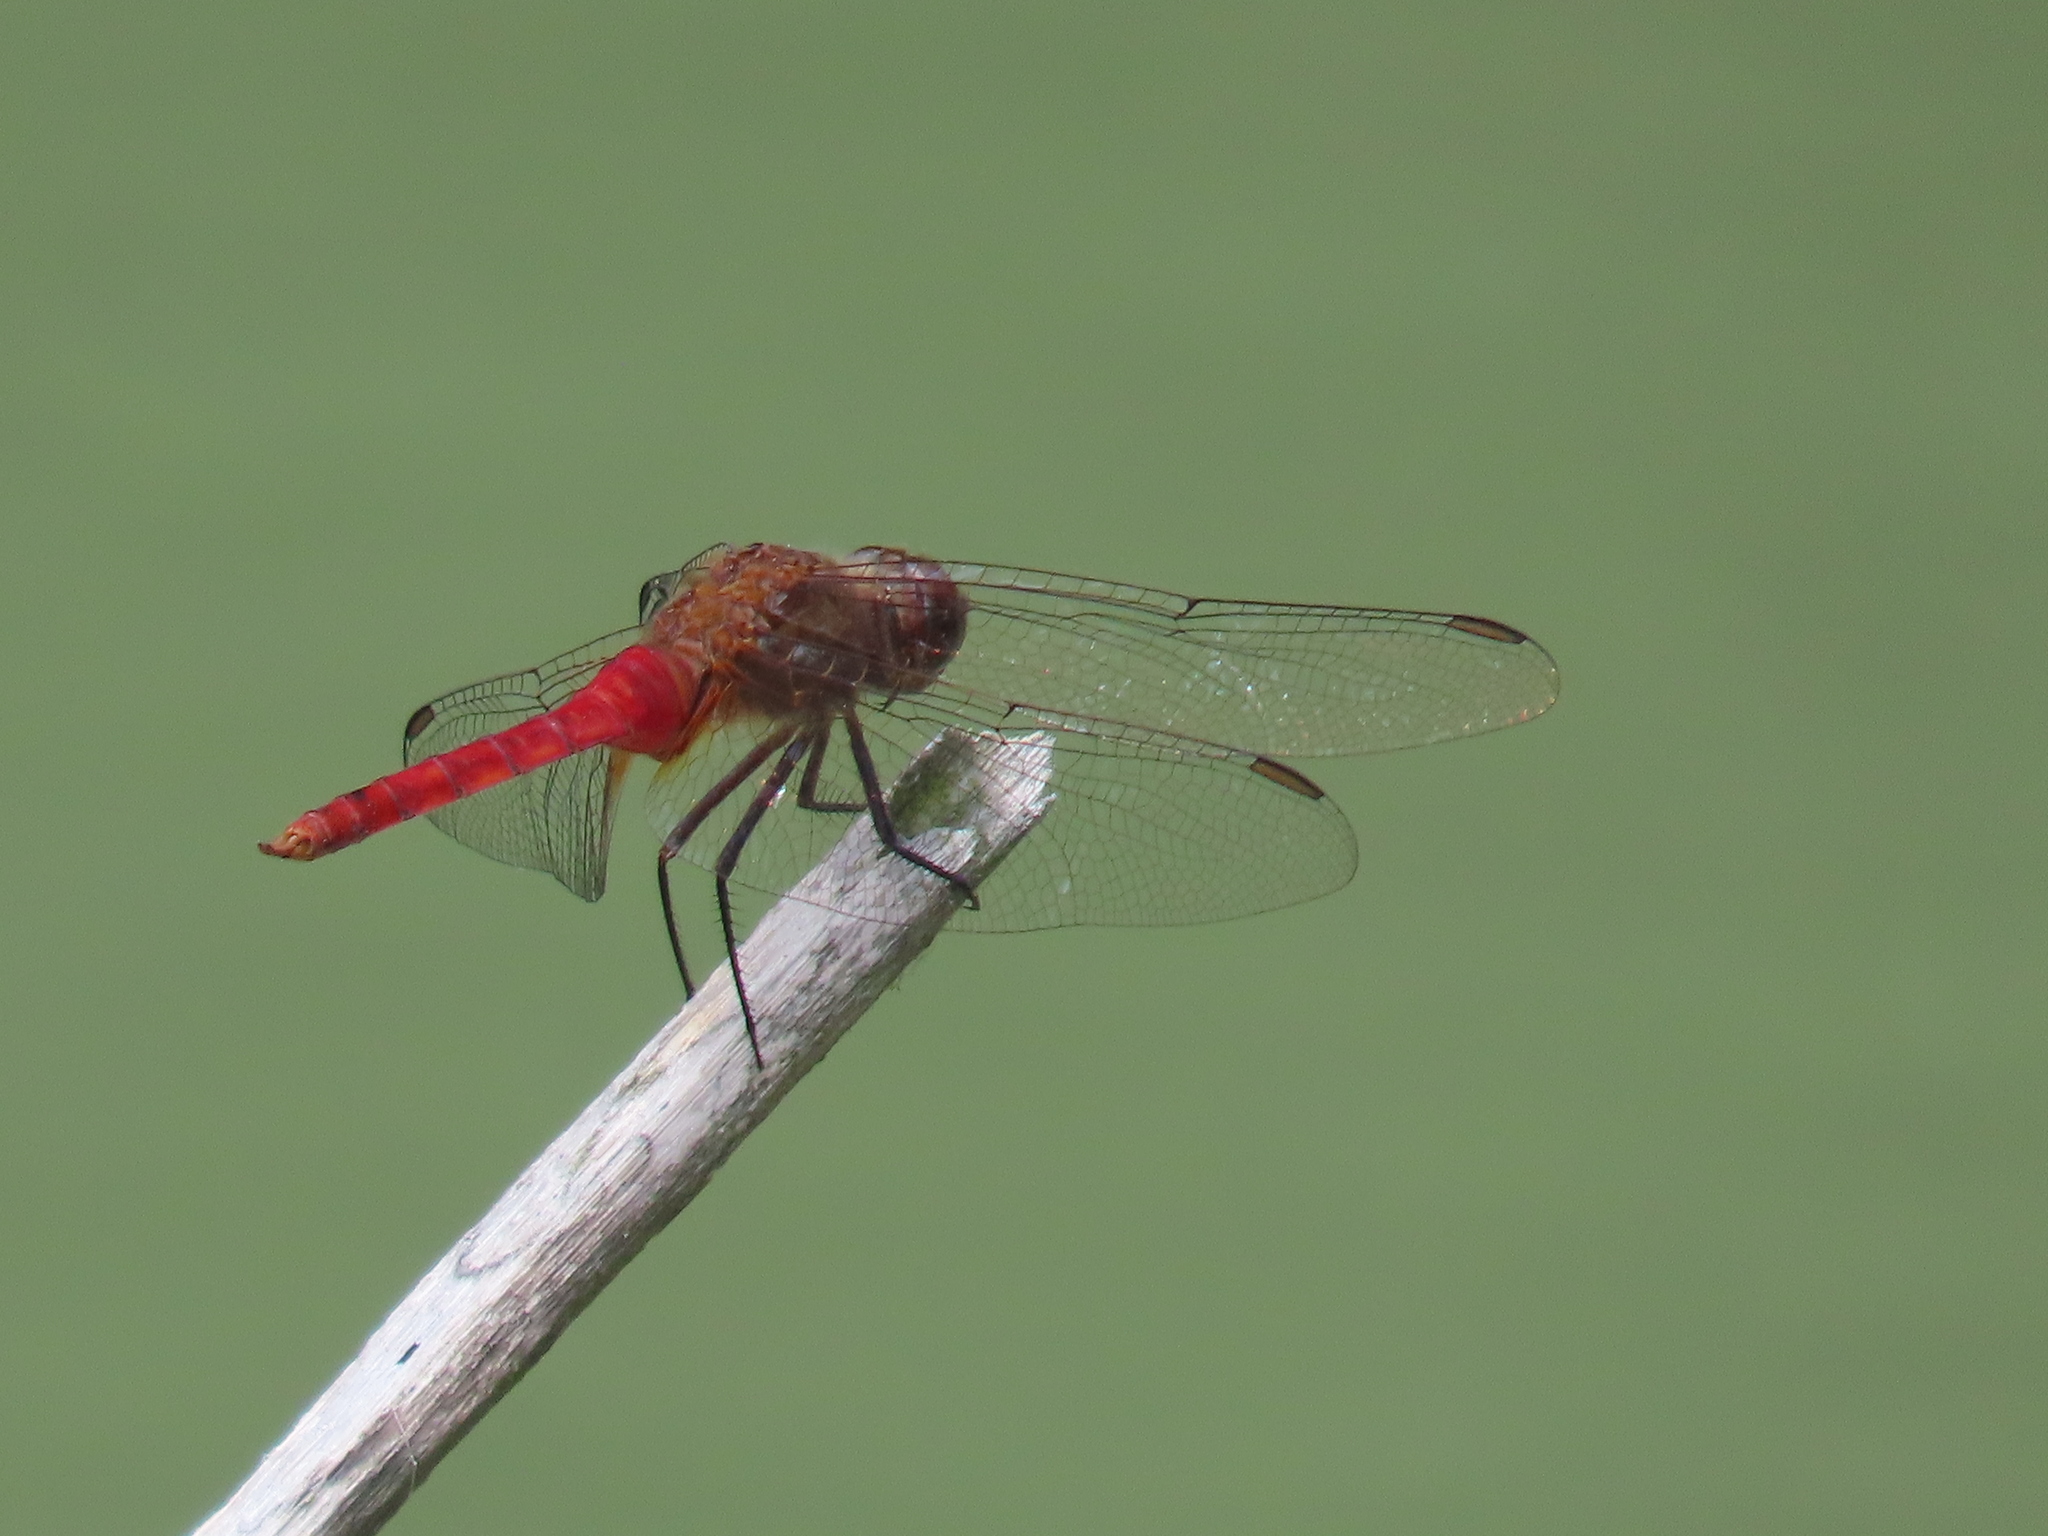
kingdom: Animalia
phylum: Arthropoda
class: Insecta
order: Odonata
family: Libellulidae
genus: Brachymesia
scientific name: Brachymesia furcata
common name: Red-taled pennant
